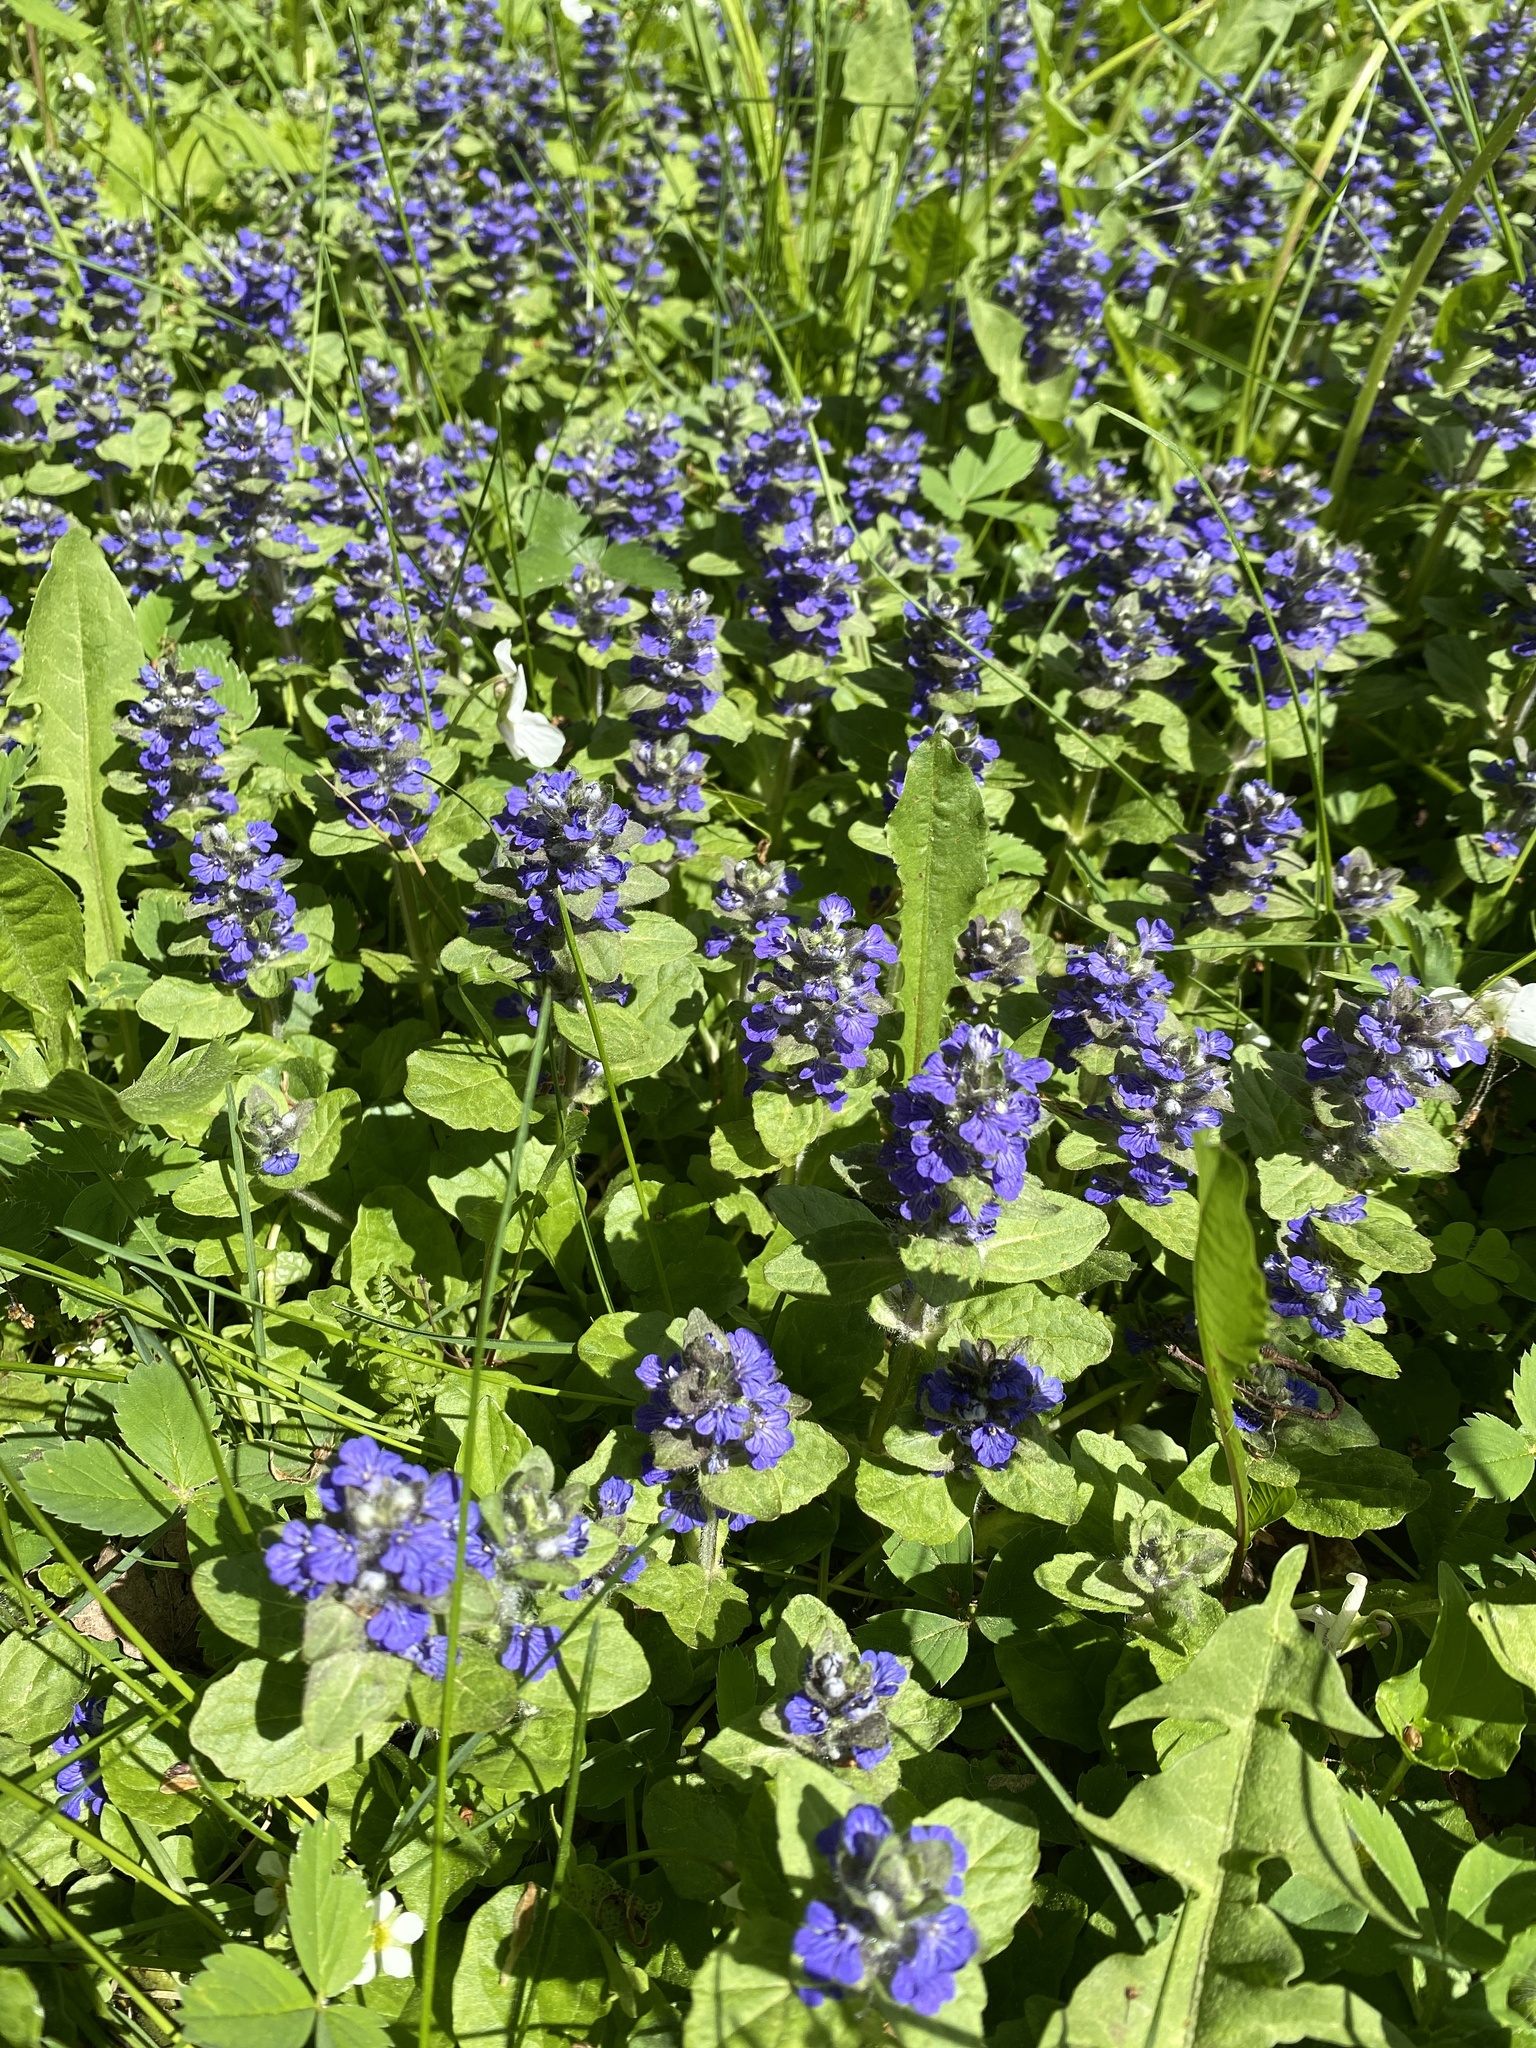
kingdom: Plantae
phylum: Tracheophyta
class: Magnoliopsida
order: Lamiales
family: Lamiaceae
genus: Ajuga
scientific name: Ajuga reptans
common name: Bugle
